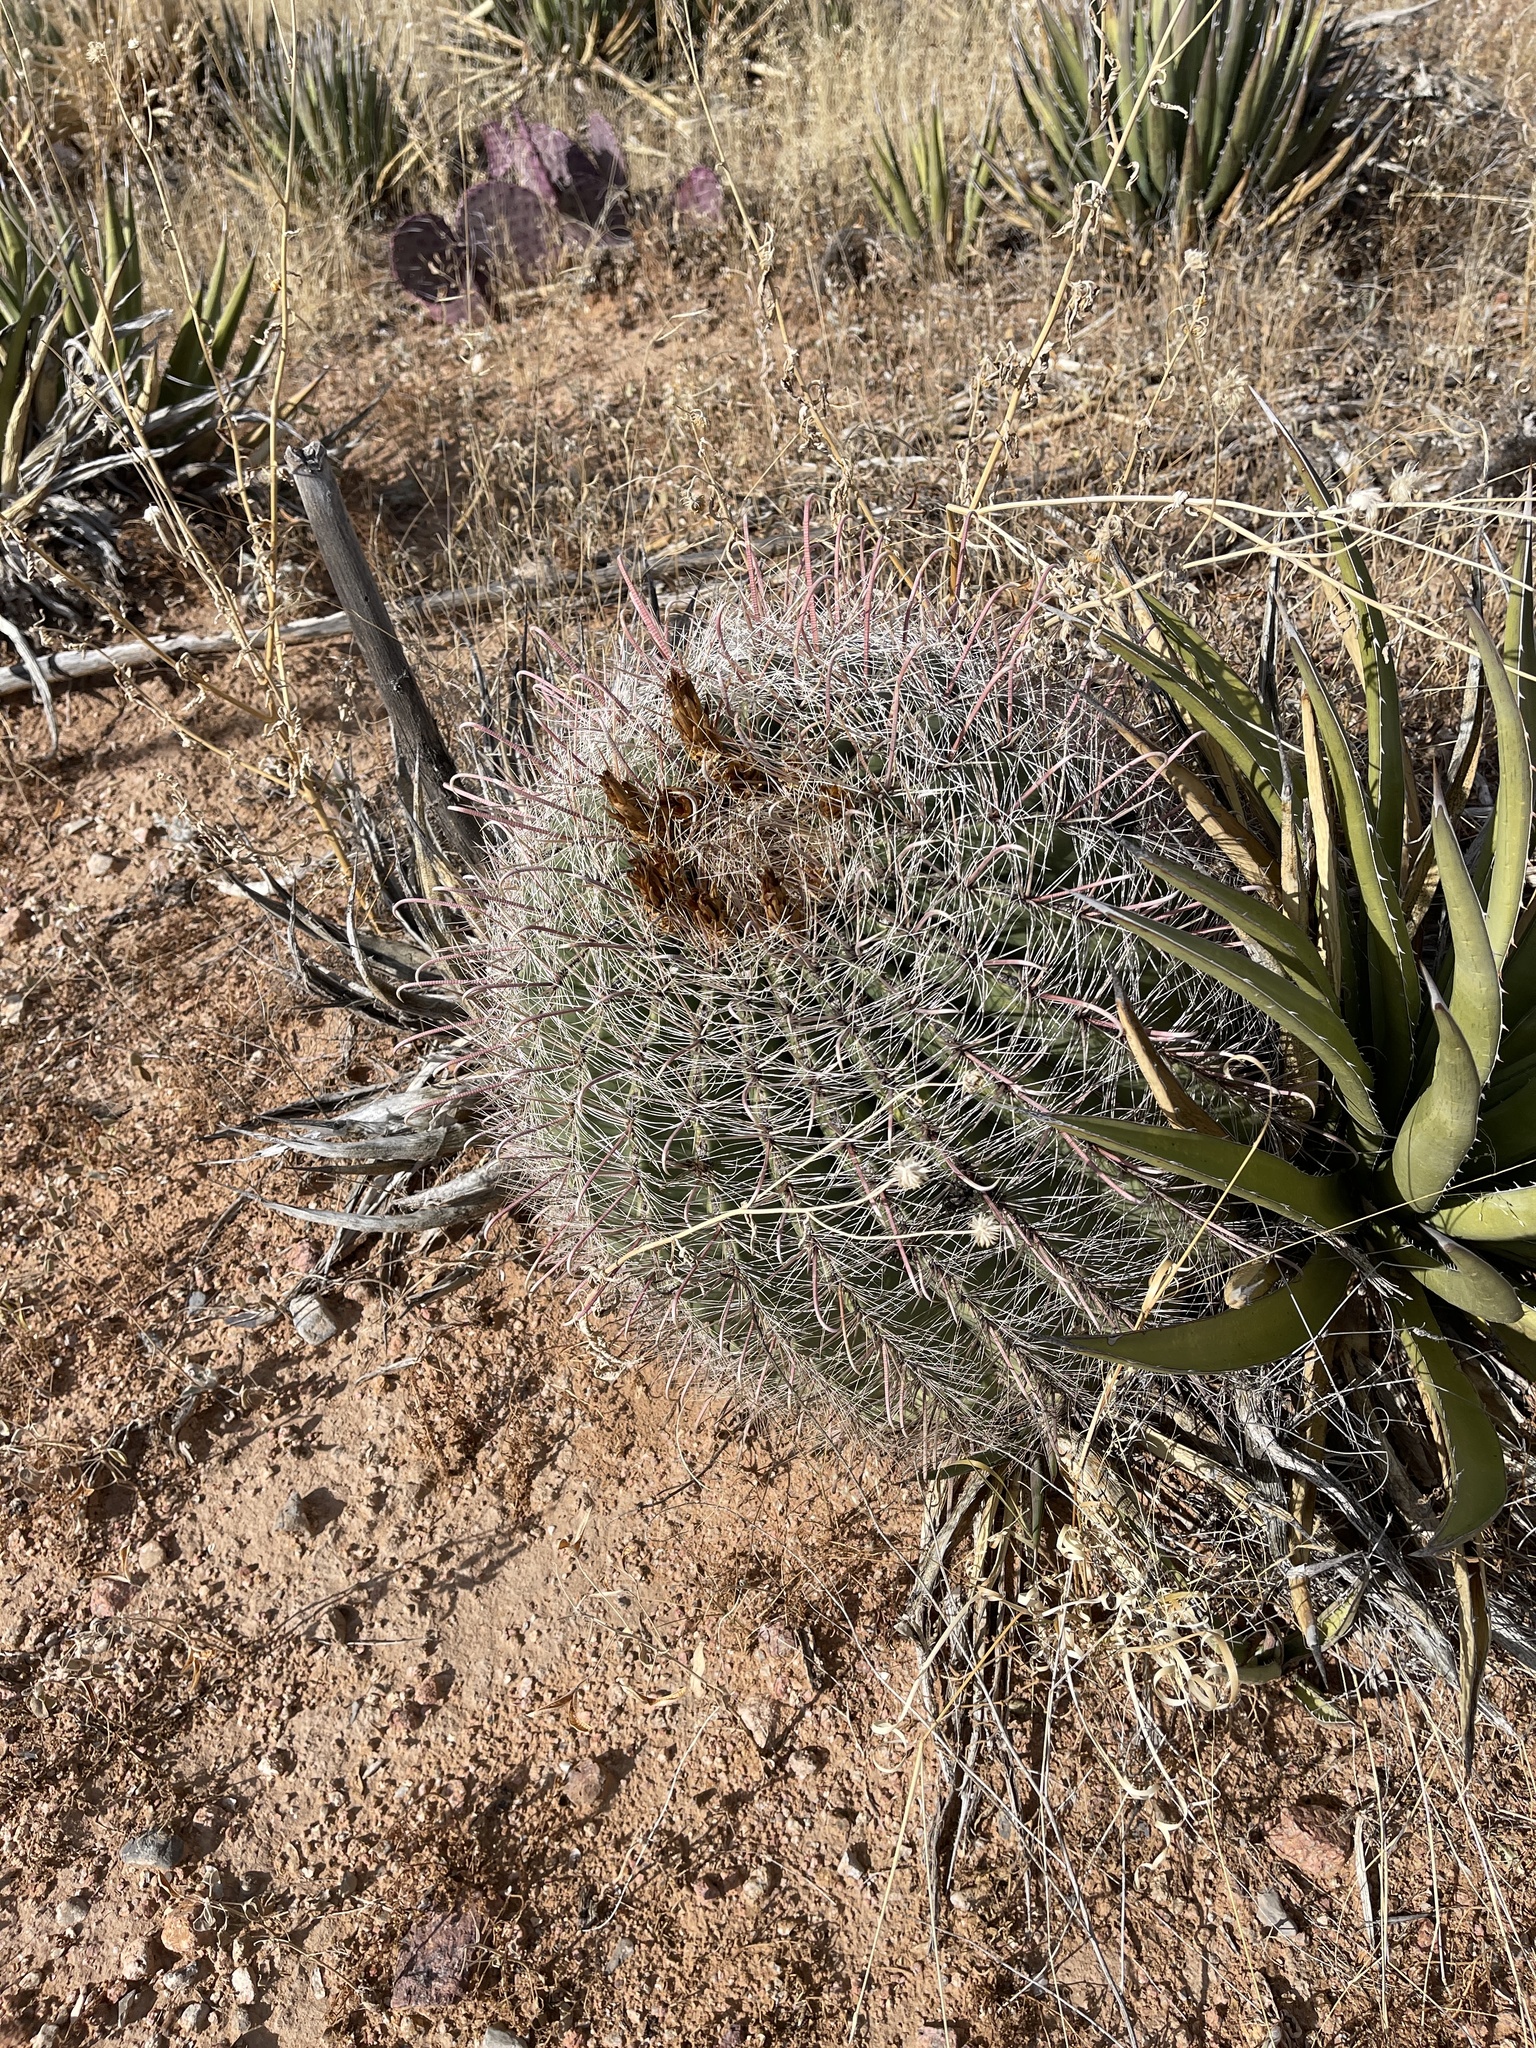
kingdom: Plantae
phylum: Tracheophyta
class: Magnoliopsida
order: Caryophyllales
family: Cactaceae
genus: Ferocactus
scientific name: Ferocactus wislizeni
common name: Candy barrel cactus
